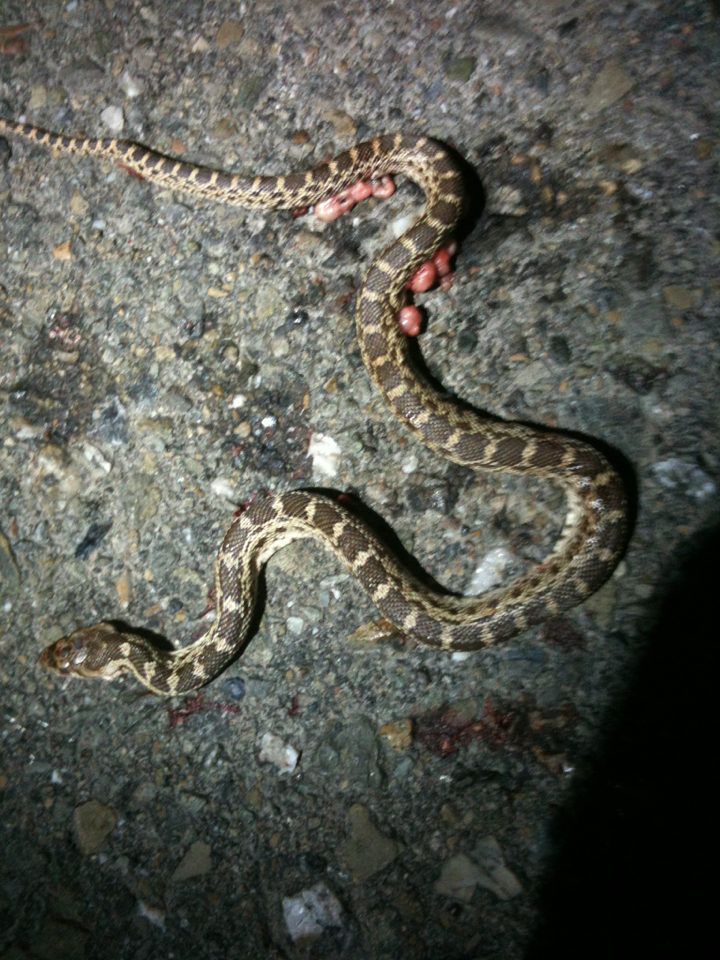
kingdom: Animalia
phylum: Chordata
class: Squamata
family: Colubridae
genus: Pituophis
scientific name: Pituophis catenifer
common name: Gopher snake
